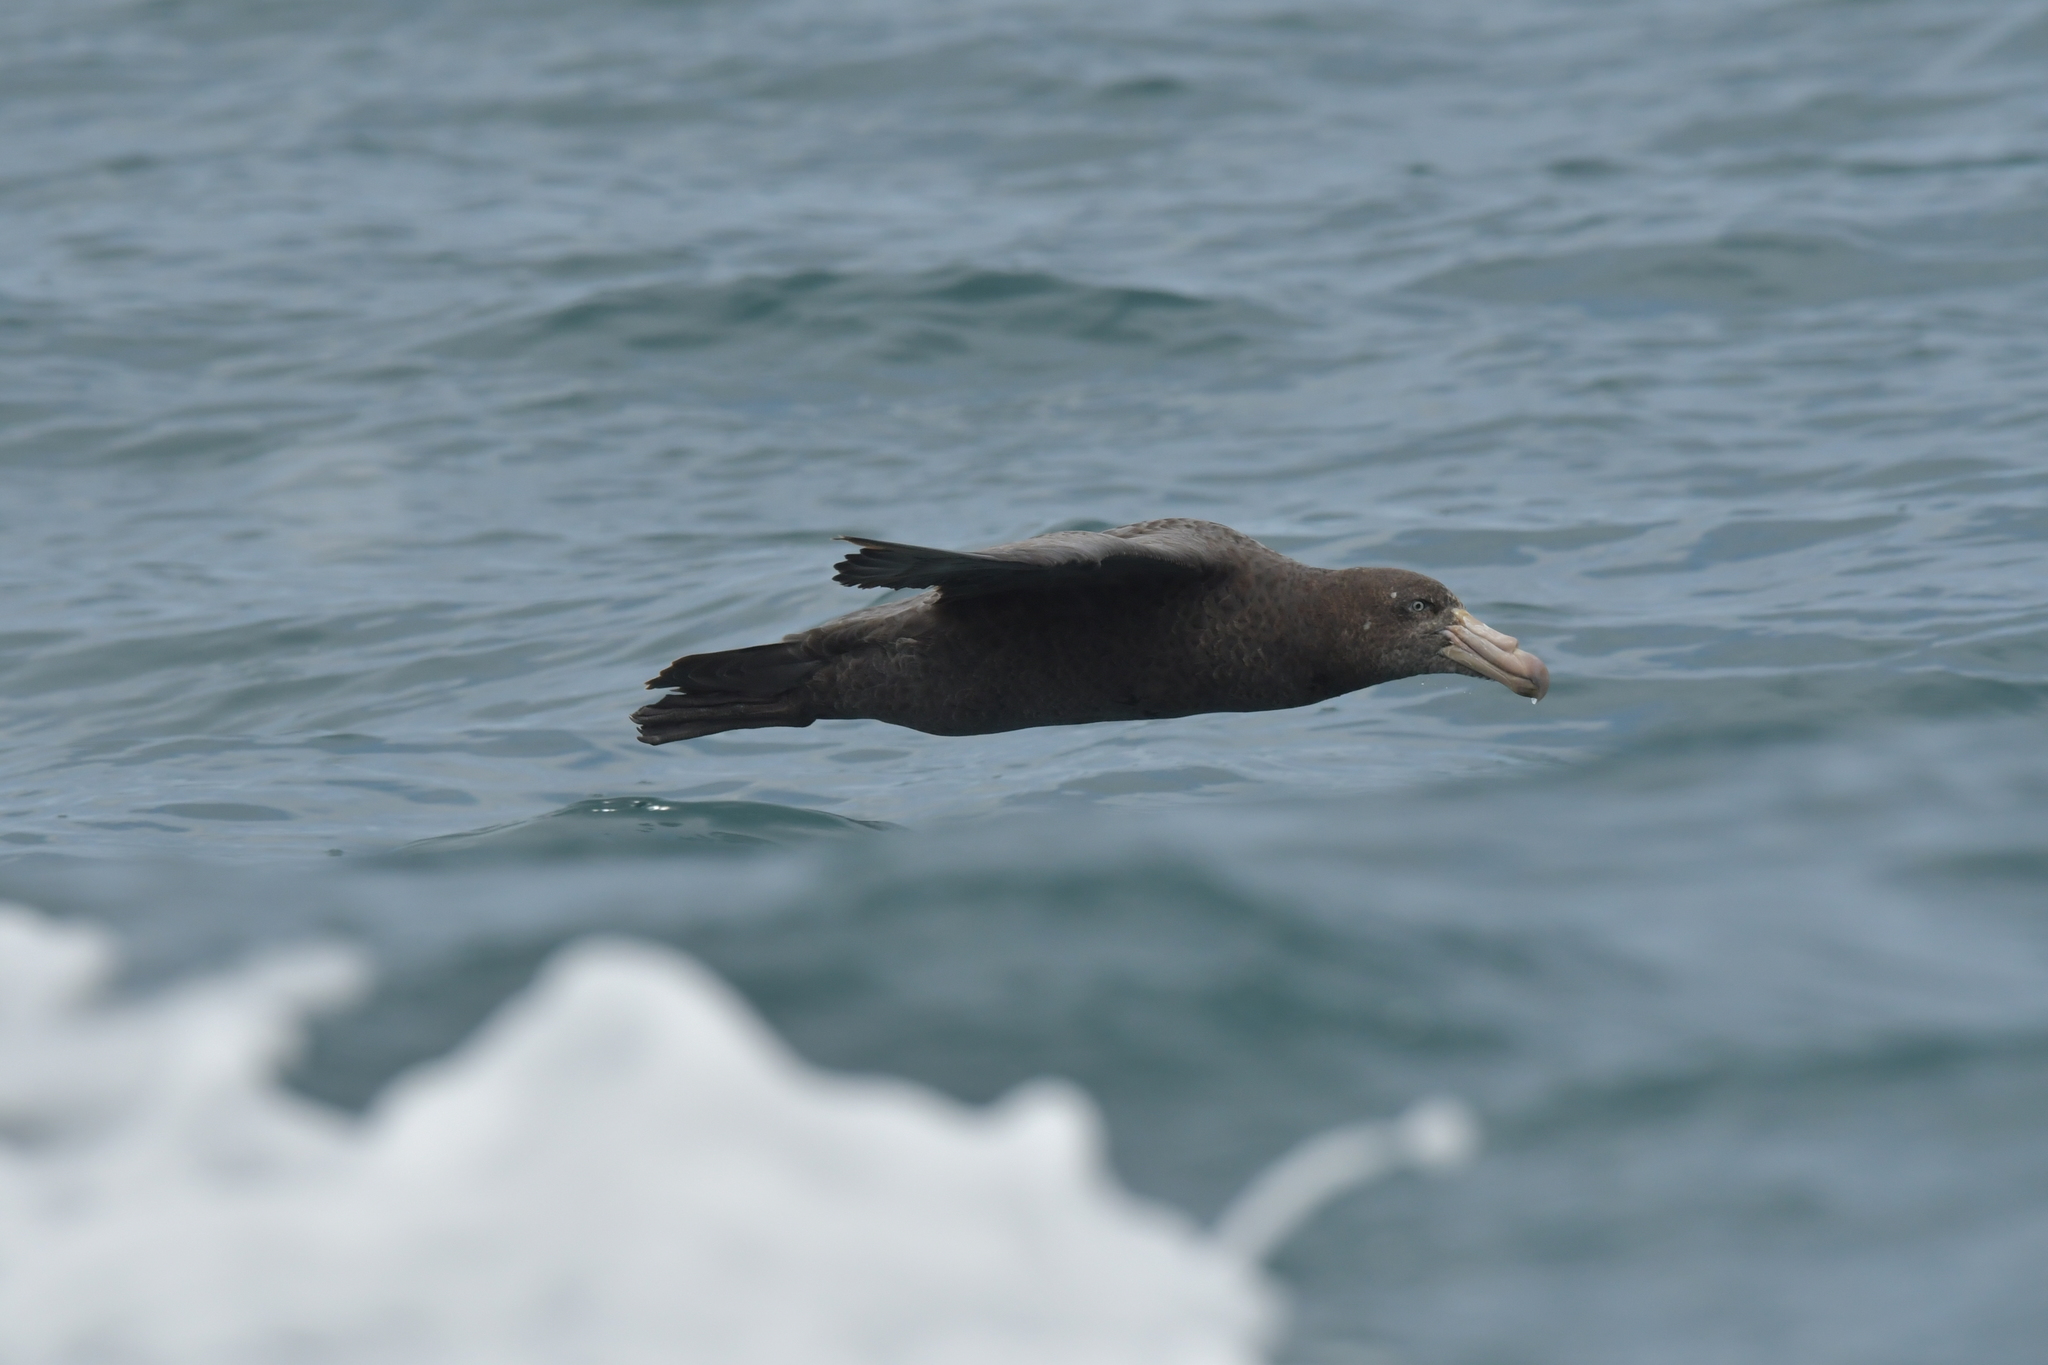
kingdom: Animalia
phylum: Chordata
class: Aves
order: Procellariiformes
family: Procellariidae
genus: Macronectes
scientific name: Macronectes halli
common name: Northern giant petrel
